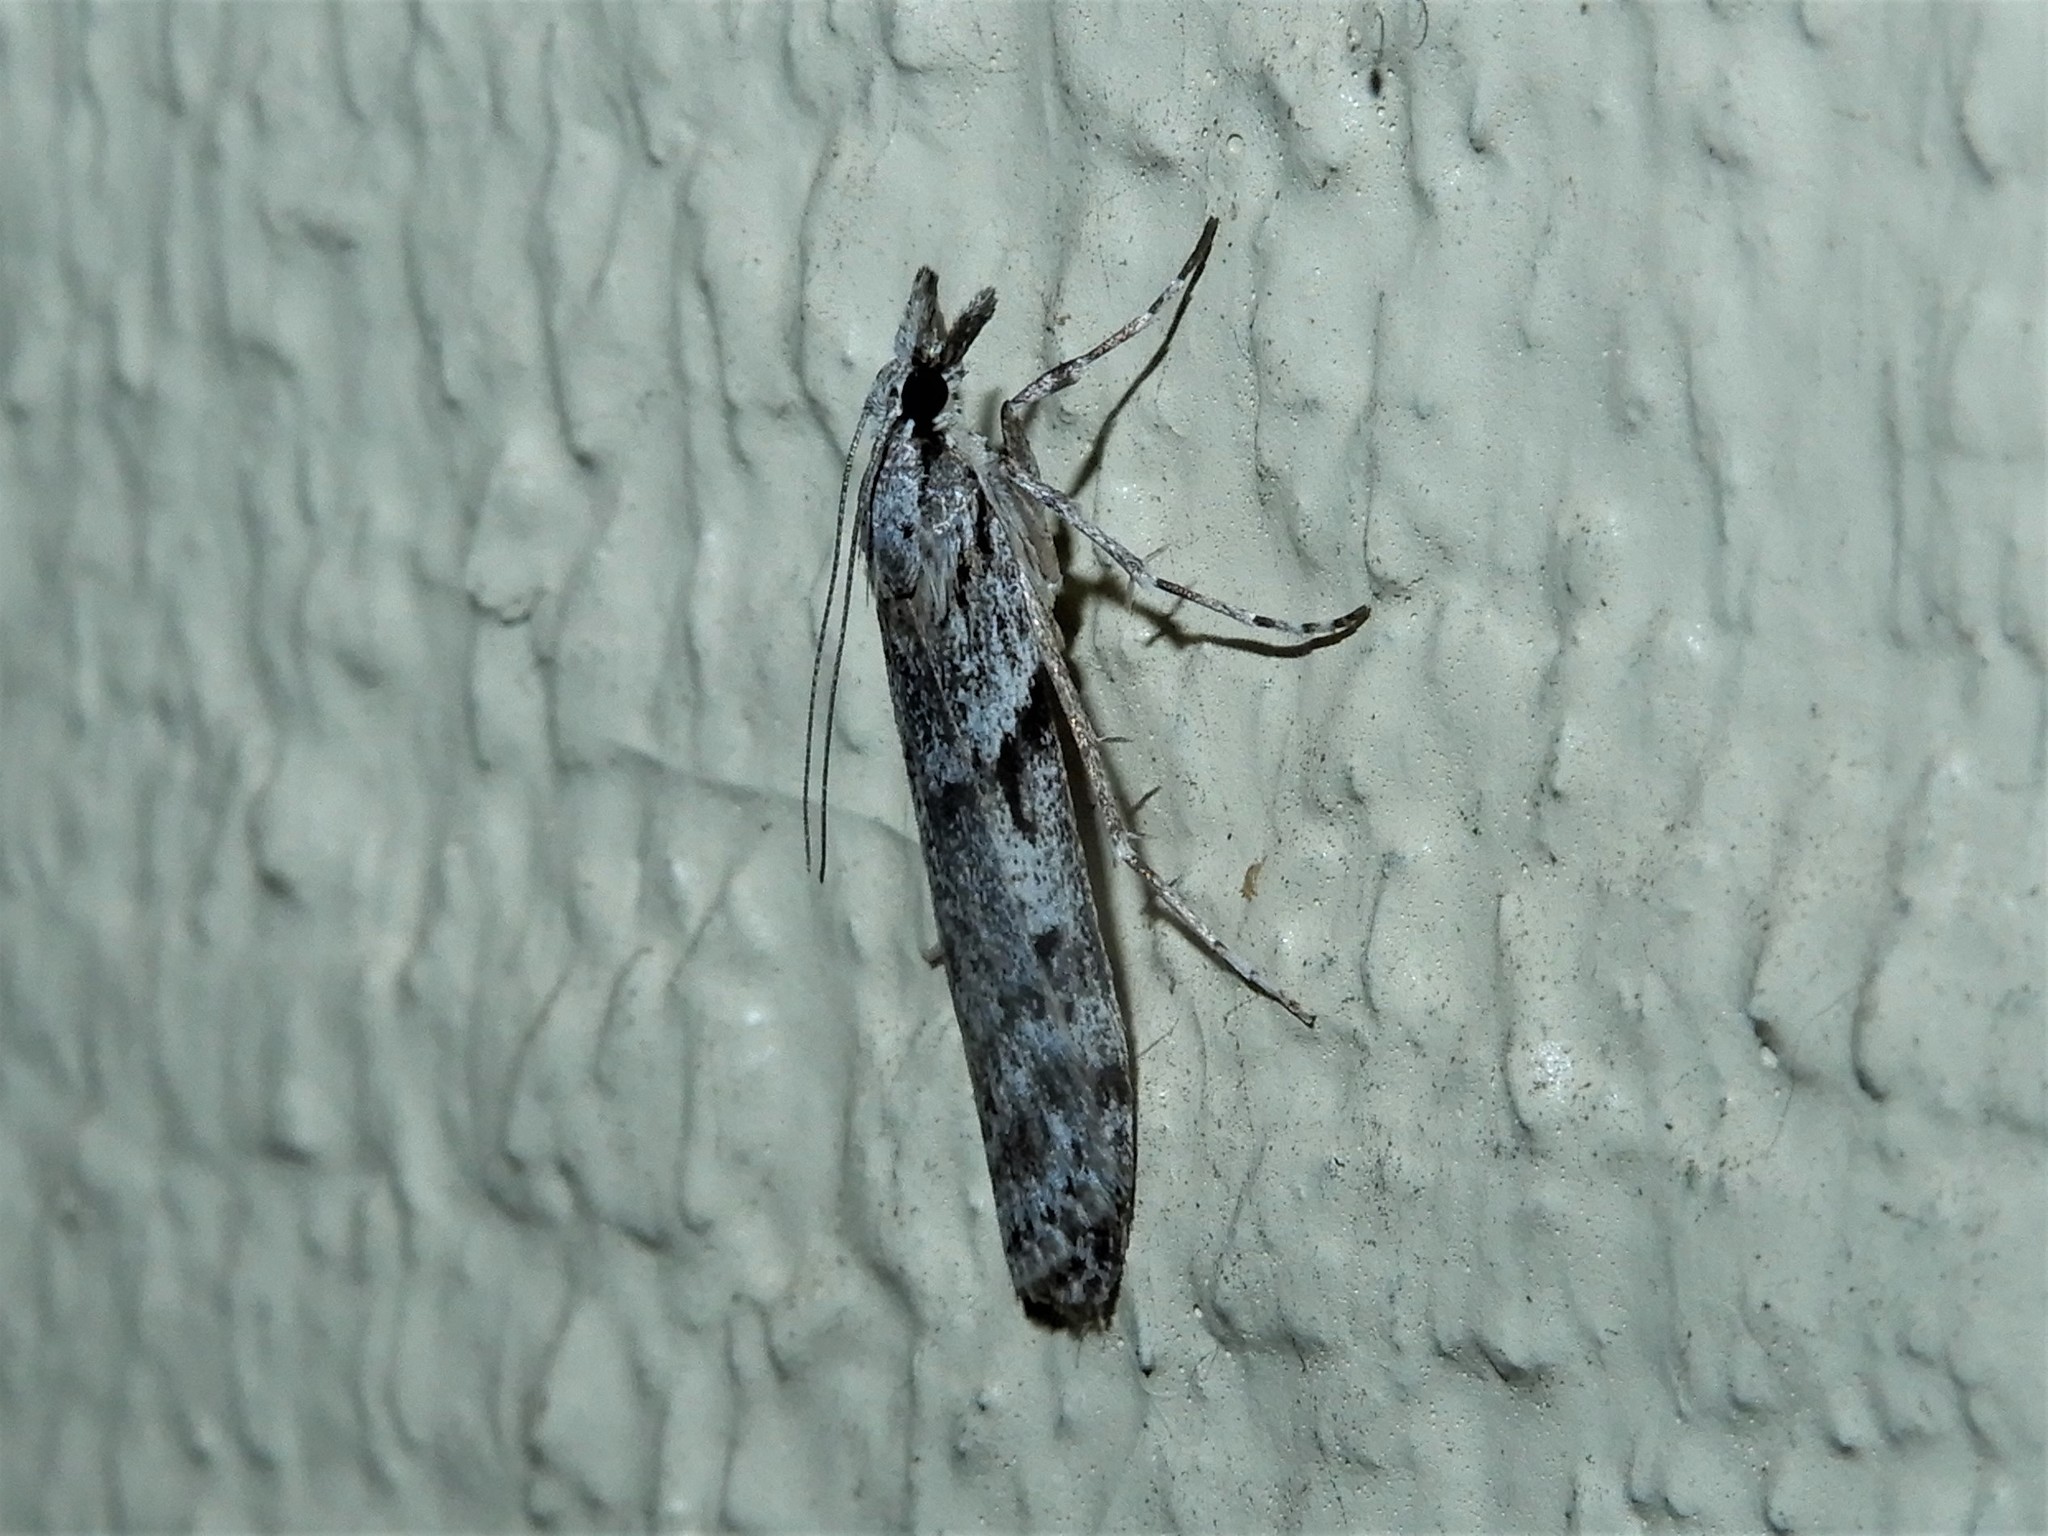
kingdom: Animalia
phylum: Arthropoda
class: Insecta
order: Lepidoptera
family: Crambidae
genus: Scoparia
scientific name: Scoparia halopis
